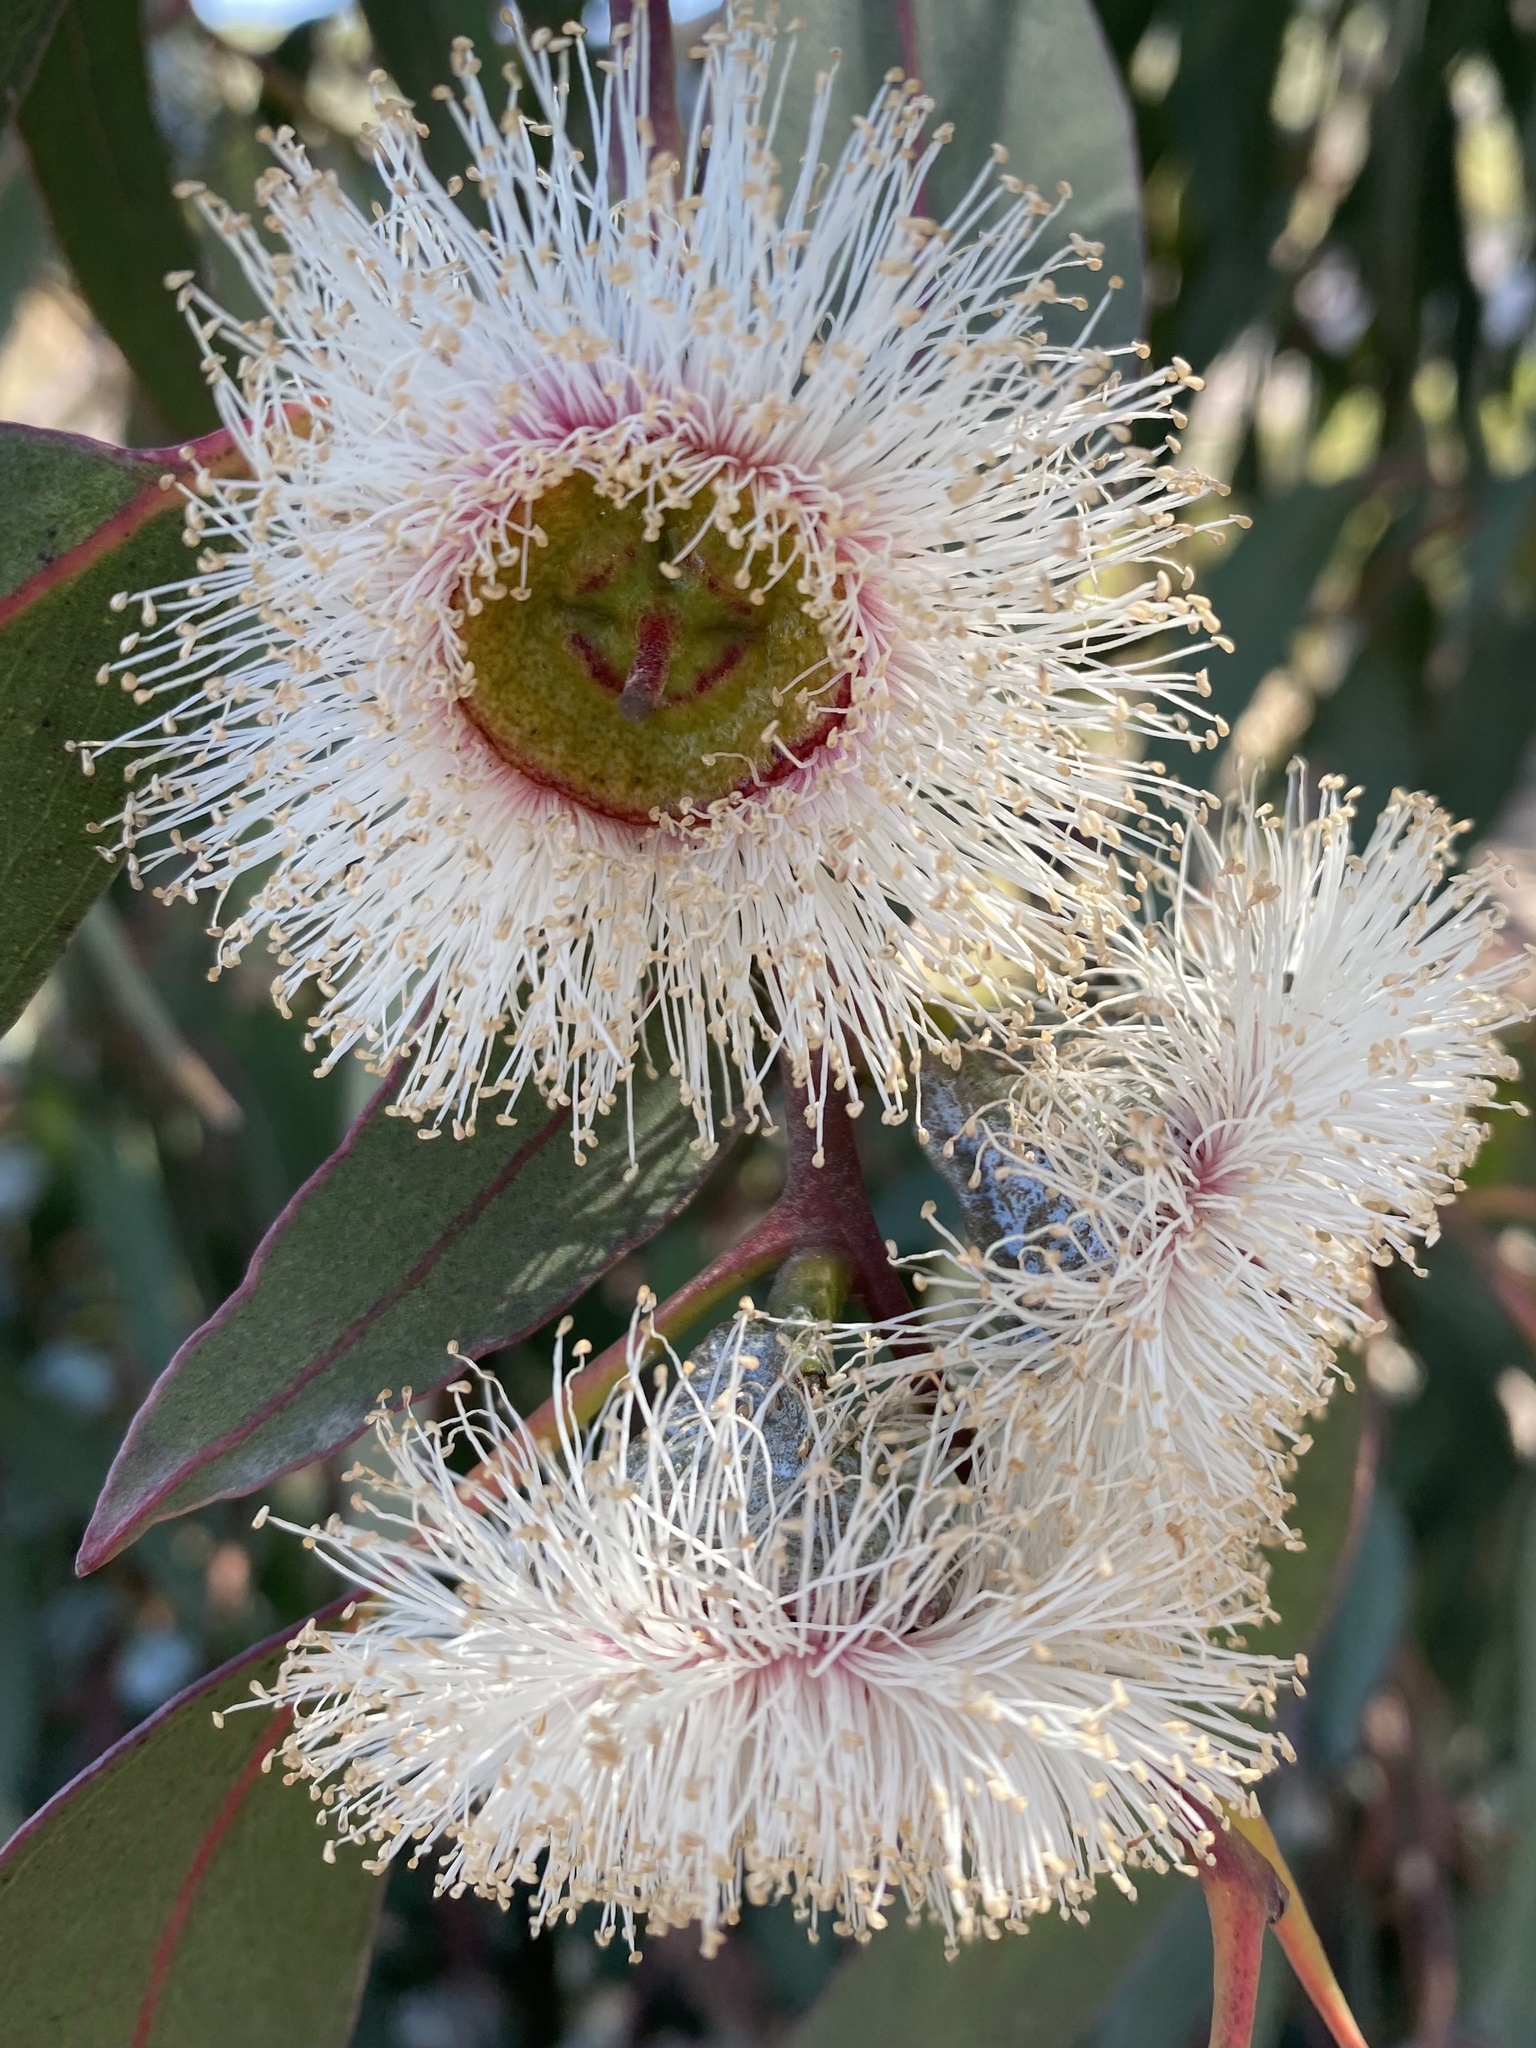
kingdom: Plantae
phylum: Tracheophyta
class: Magnoliopsida
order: Myrtales
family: Myrtaceae
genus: Eucalyptus
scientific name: Eucalyptus globulus
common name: Southern blue-gum
